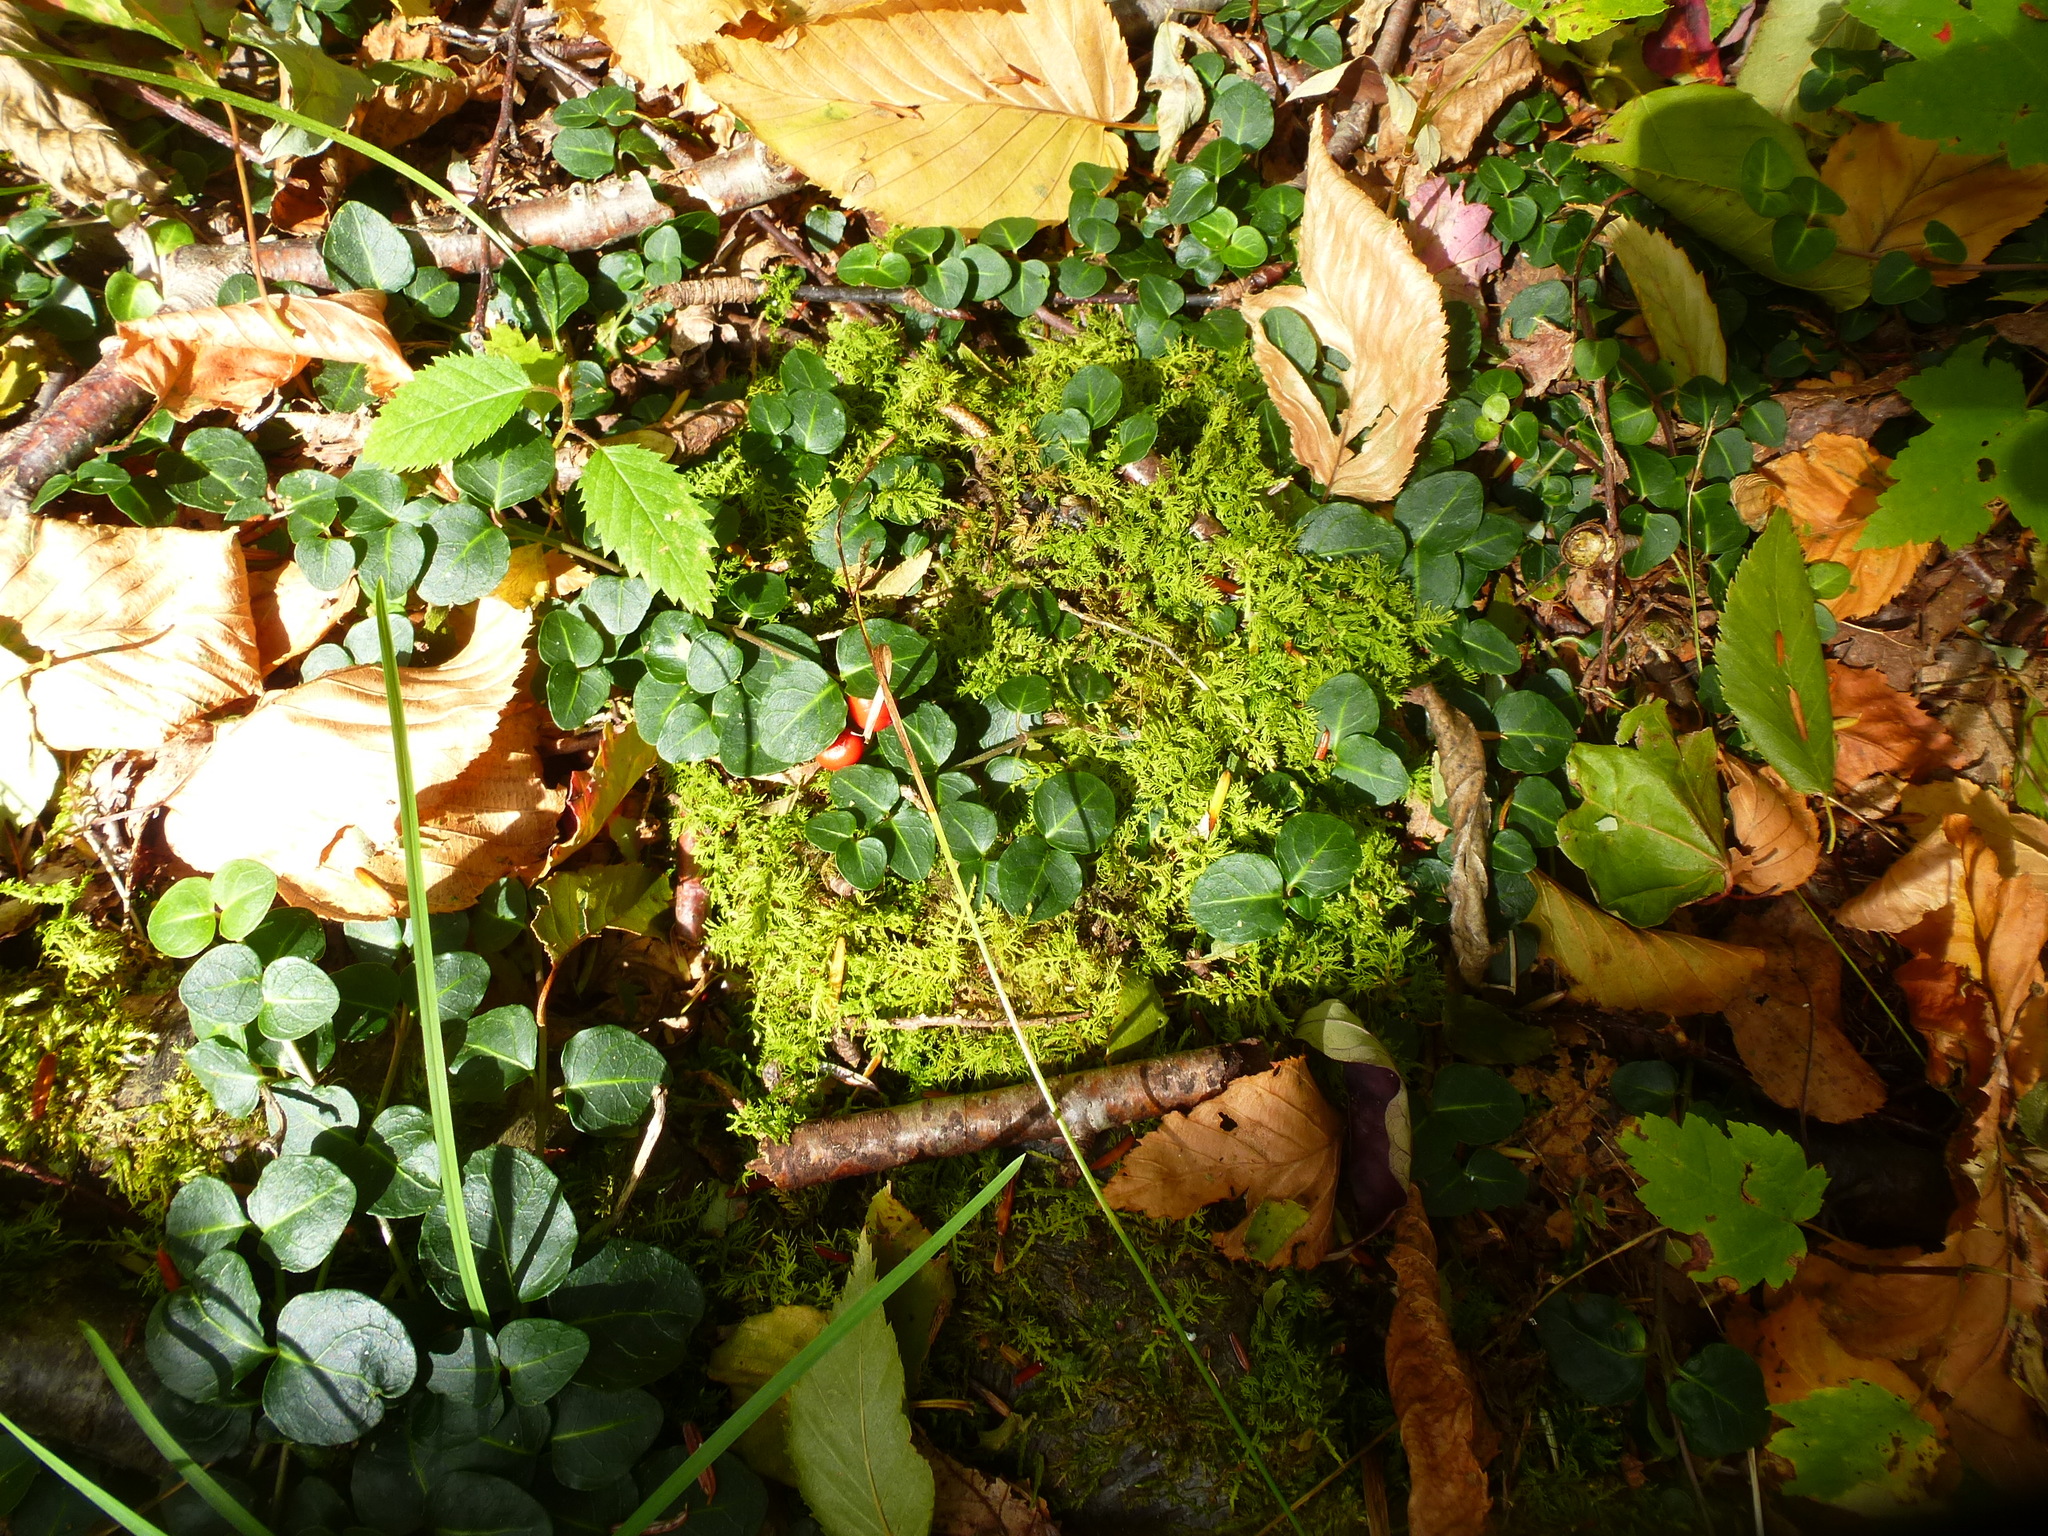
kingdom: Plantae
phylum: Tracheophyta
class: Magnoliopsida
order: Gentianales
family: Rubiaceae
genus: Mitchella
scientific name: Mitchella repens
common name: Partridge-berry
